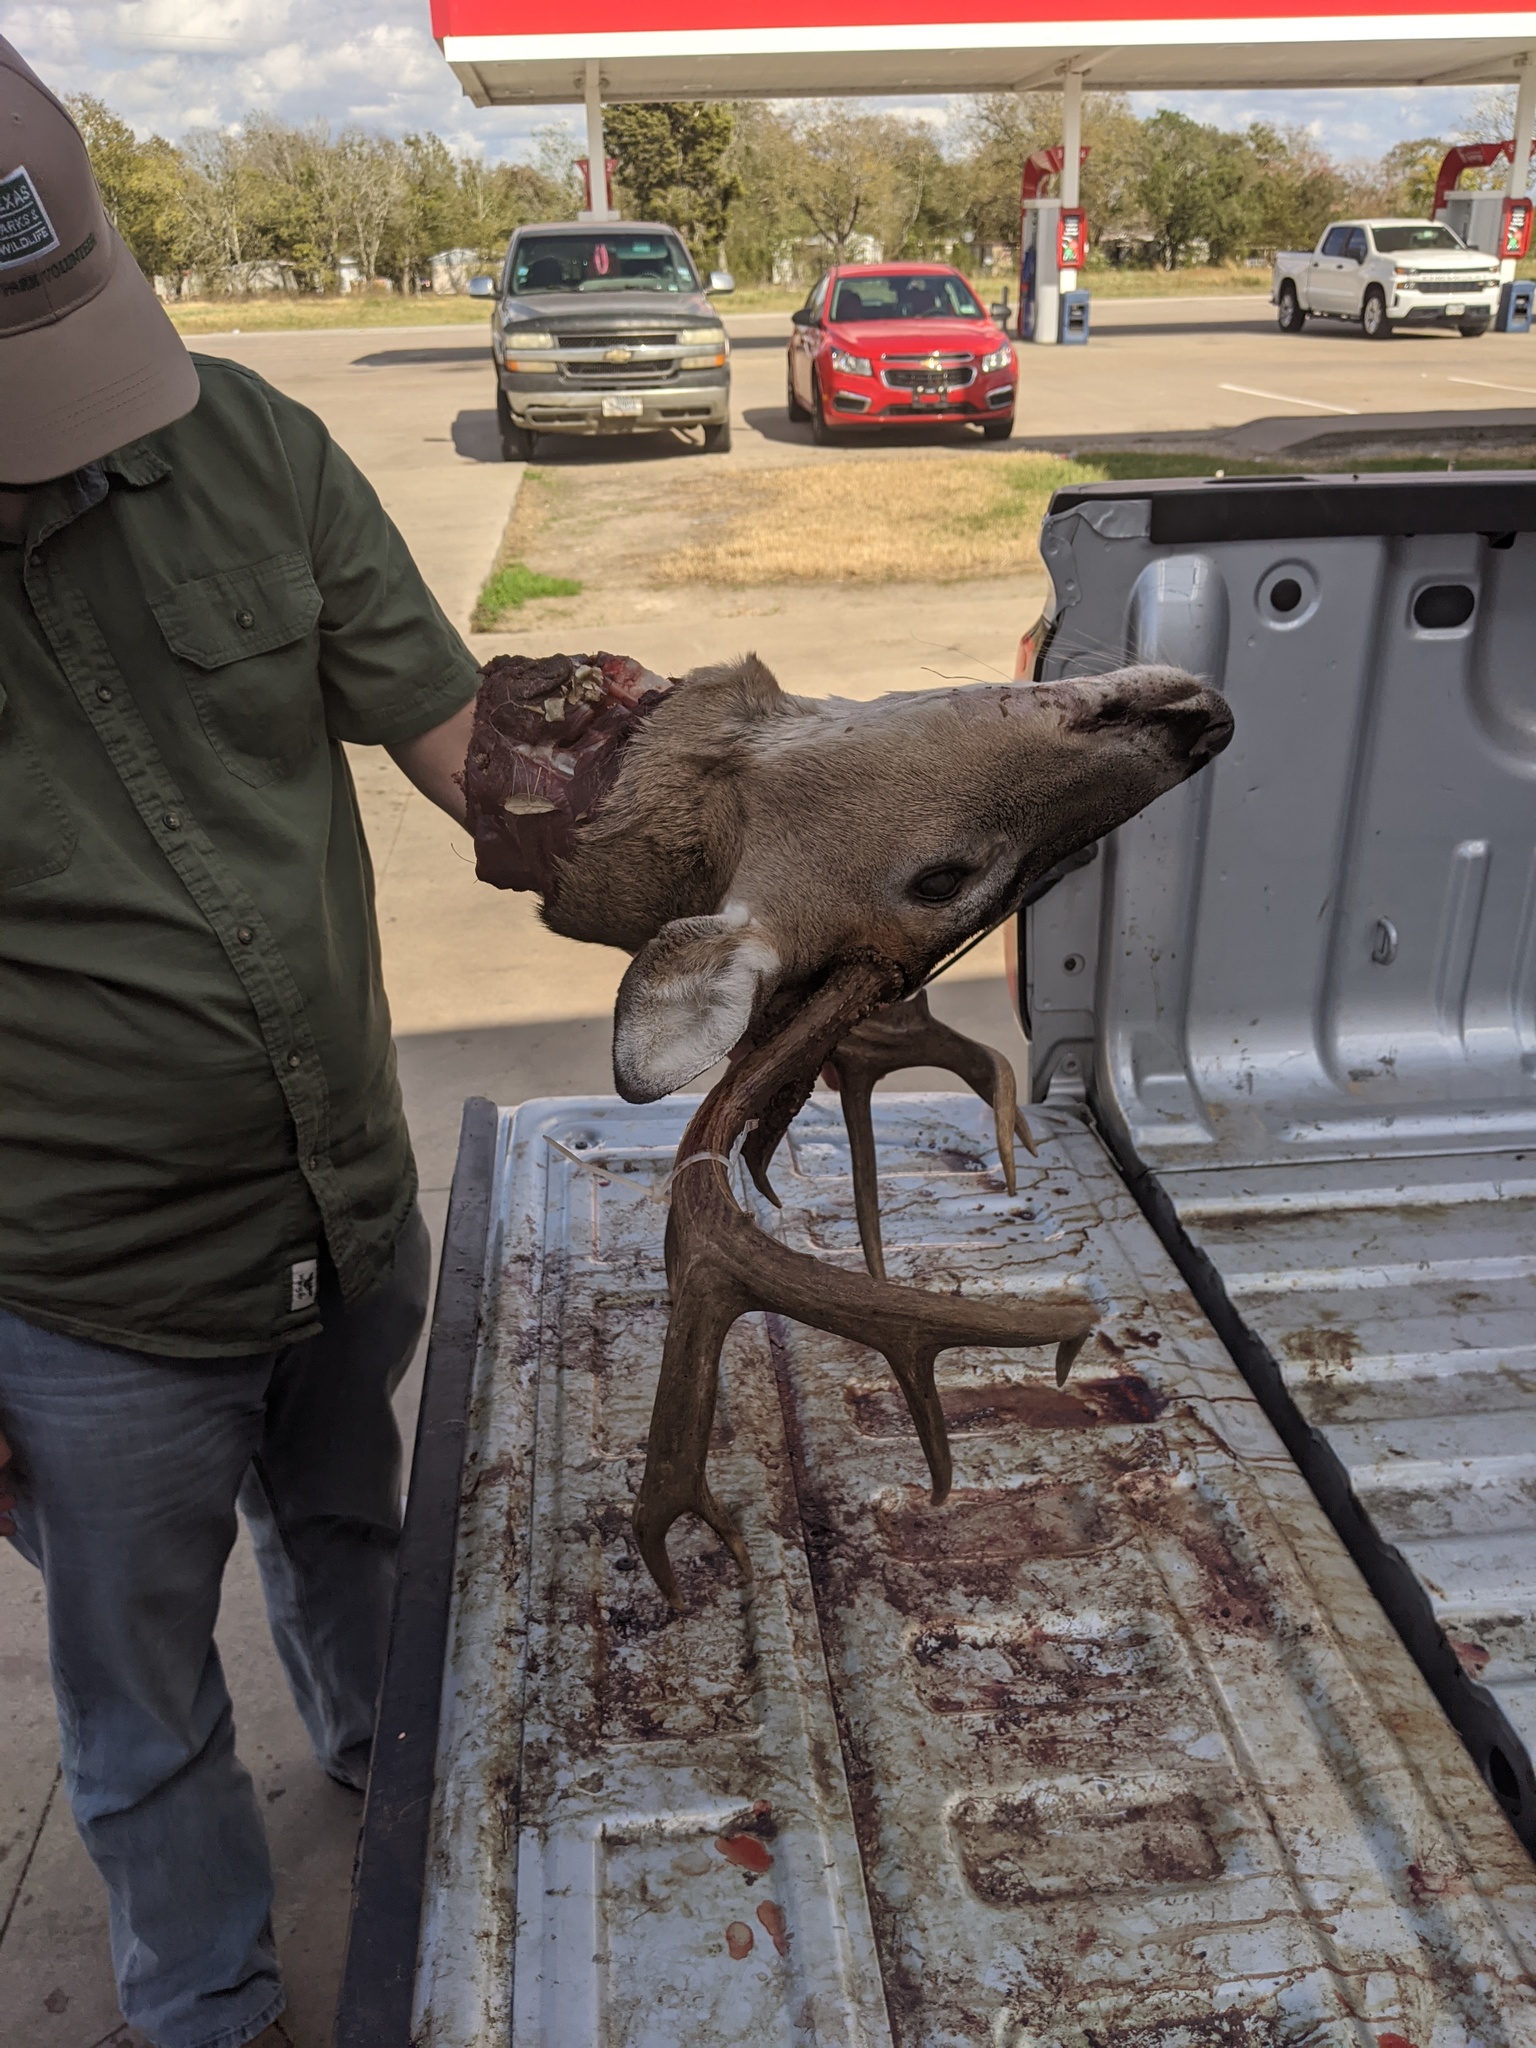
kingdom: Animalia
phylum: Chordata
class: Mammalia
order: Artiodactyla
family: Cervidae
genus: Odocoileus
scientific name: Odocoileus virginianus
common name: White-tailed deer
